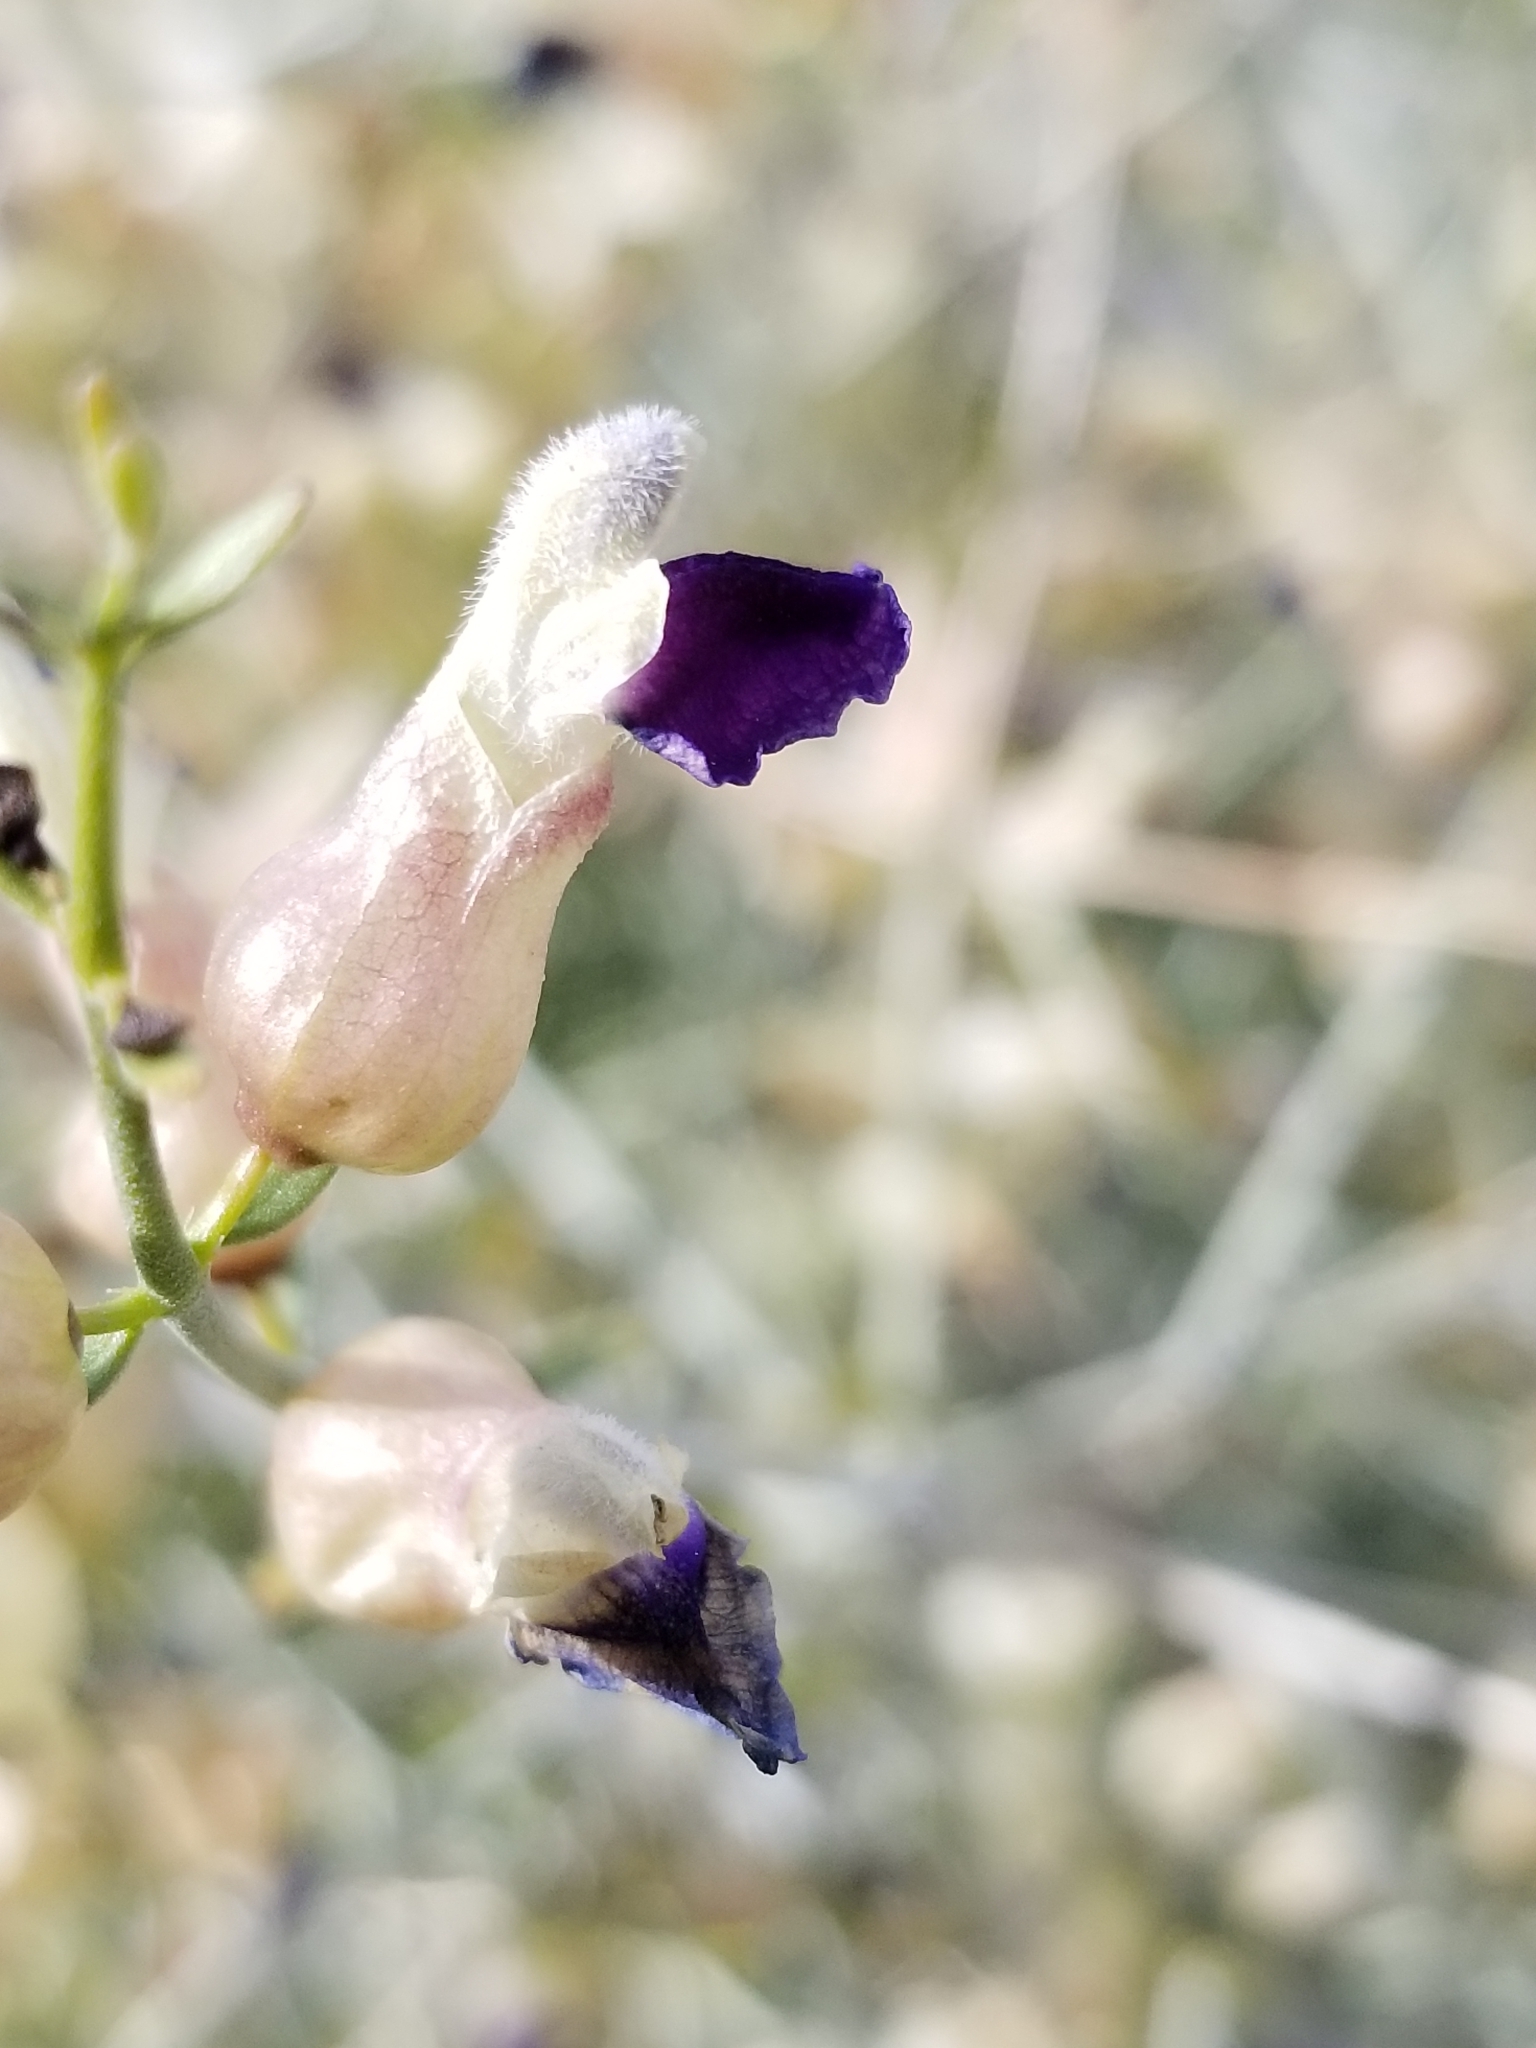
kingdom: Plantae
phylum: Tracheophyta
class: Magnoliopsida
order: Lamiales
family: Lamiaceae
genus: Scutellaria
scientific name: Scutellaria mexicana
